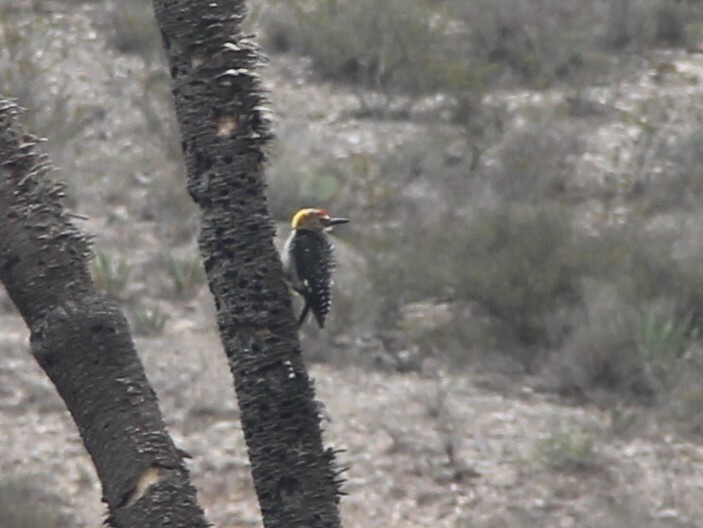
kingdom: Animalia
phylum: Chordata
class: Aves
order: Piciformes
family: Picidae
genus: Melanerpes
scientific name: Melanerpes aurifrons
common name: Golden-fronted woodpecker
